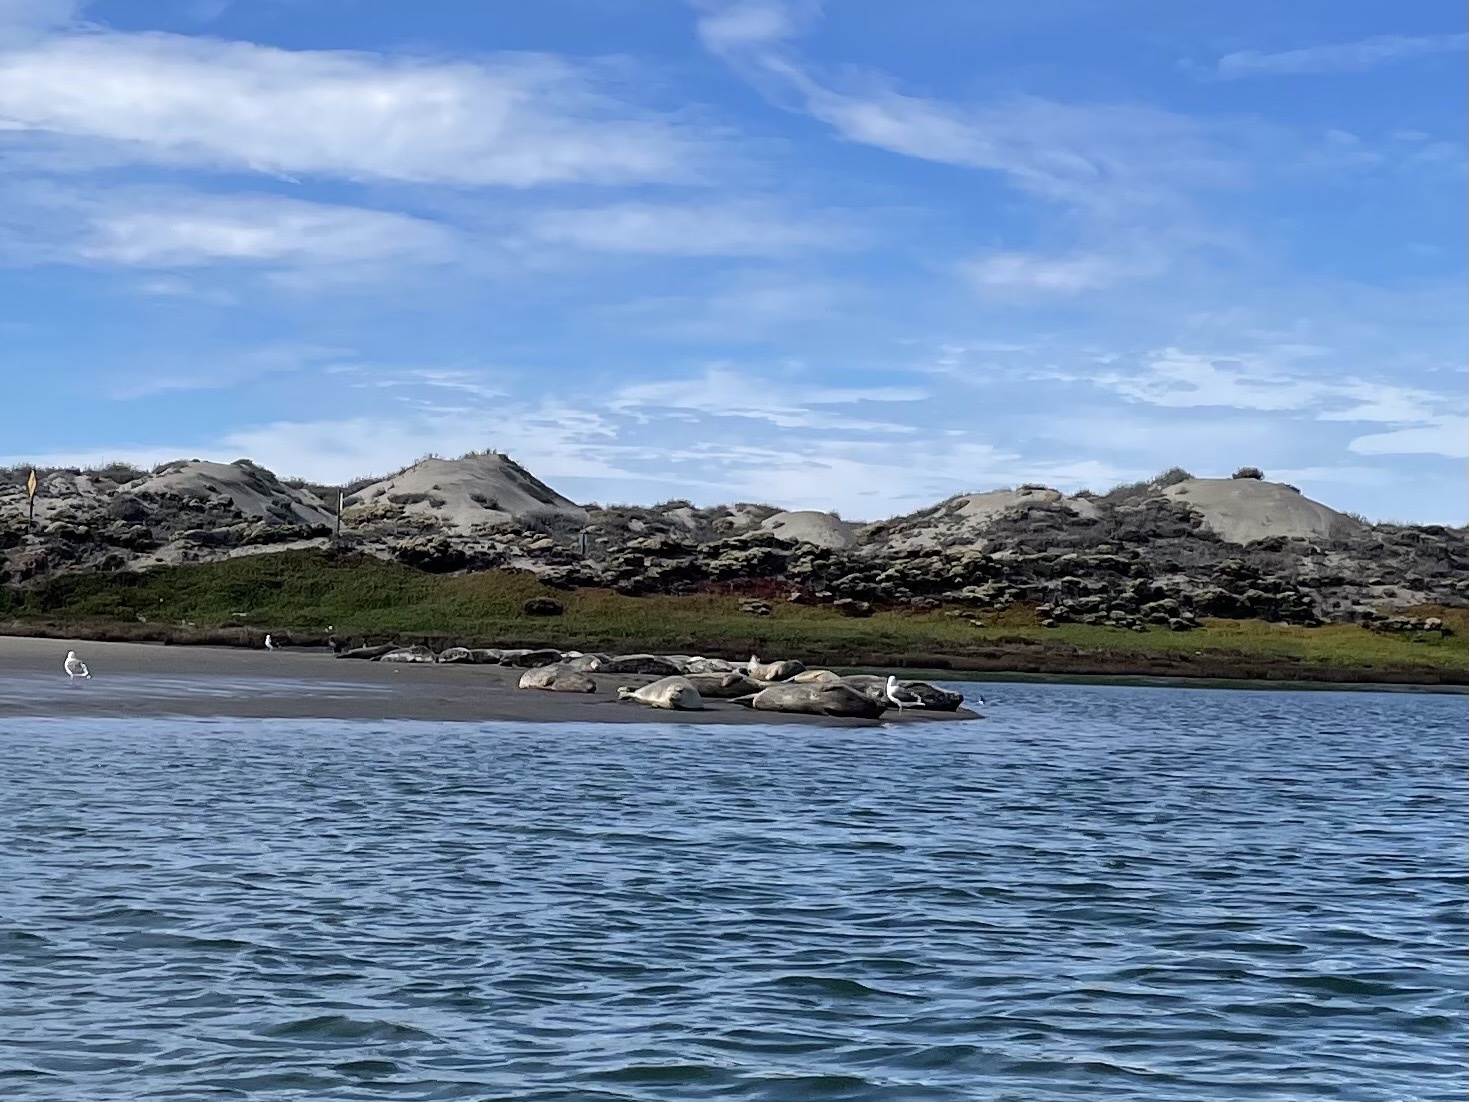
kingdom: Animalia
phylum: Chordata
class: Mammalia
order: Carnivora
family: Phocidae
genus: Phoca
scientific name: Phoca vitulina
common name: Harbor seal
